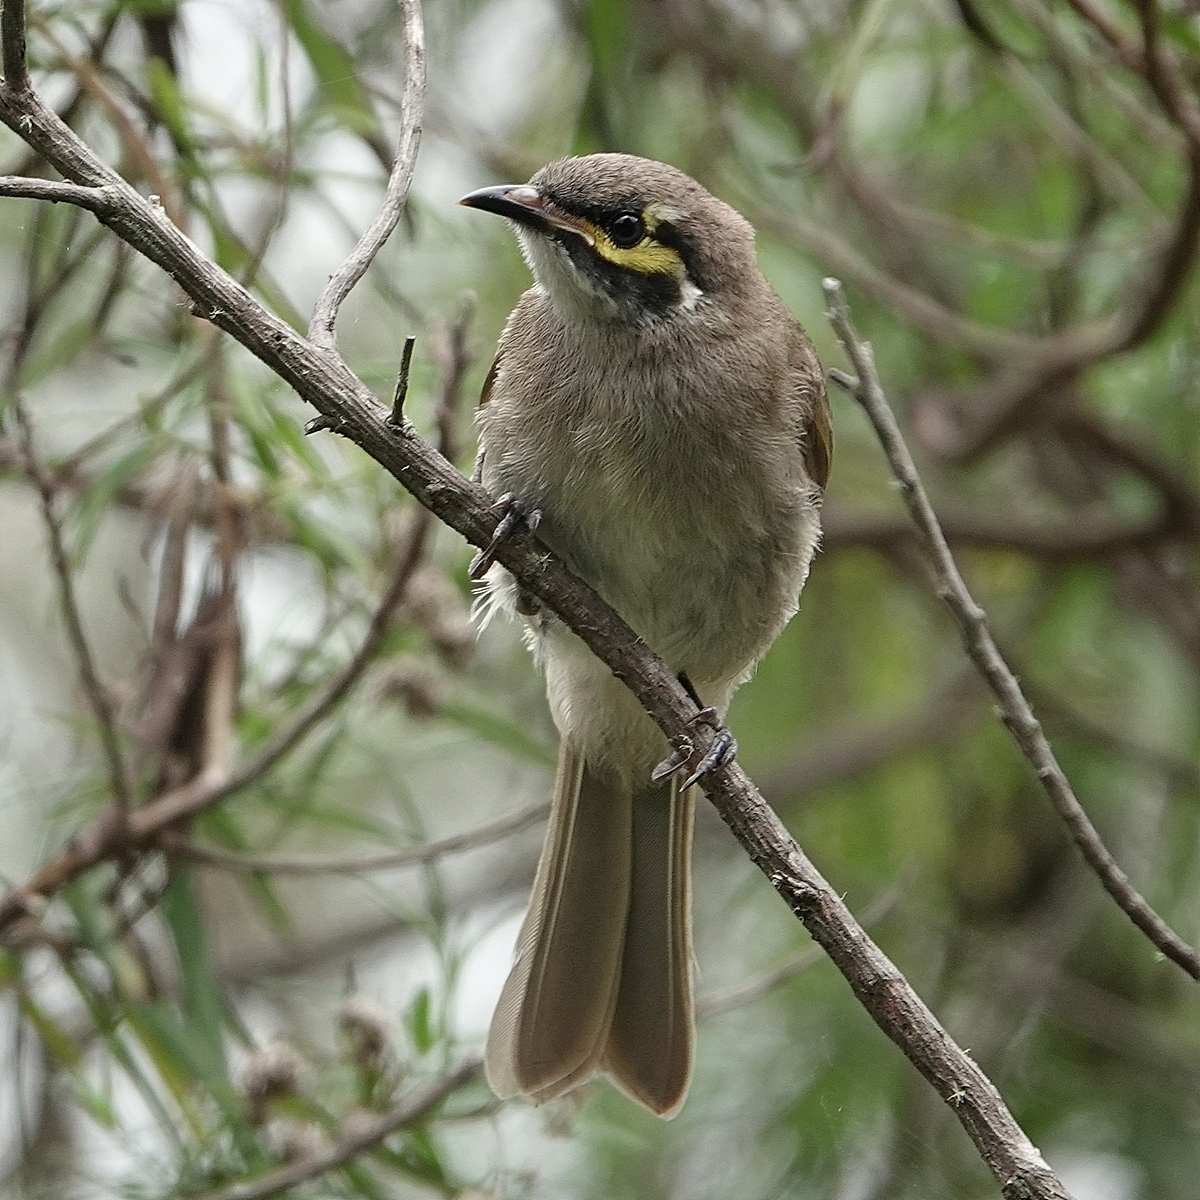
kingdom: Animalia
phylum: Chordata
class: Aves
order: Passeriformes
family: Meliphagidae
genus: Caligavis
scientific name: Caligavis chrysops
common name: Yellow-faced honeyeater
